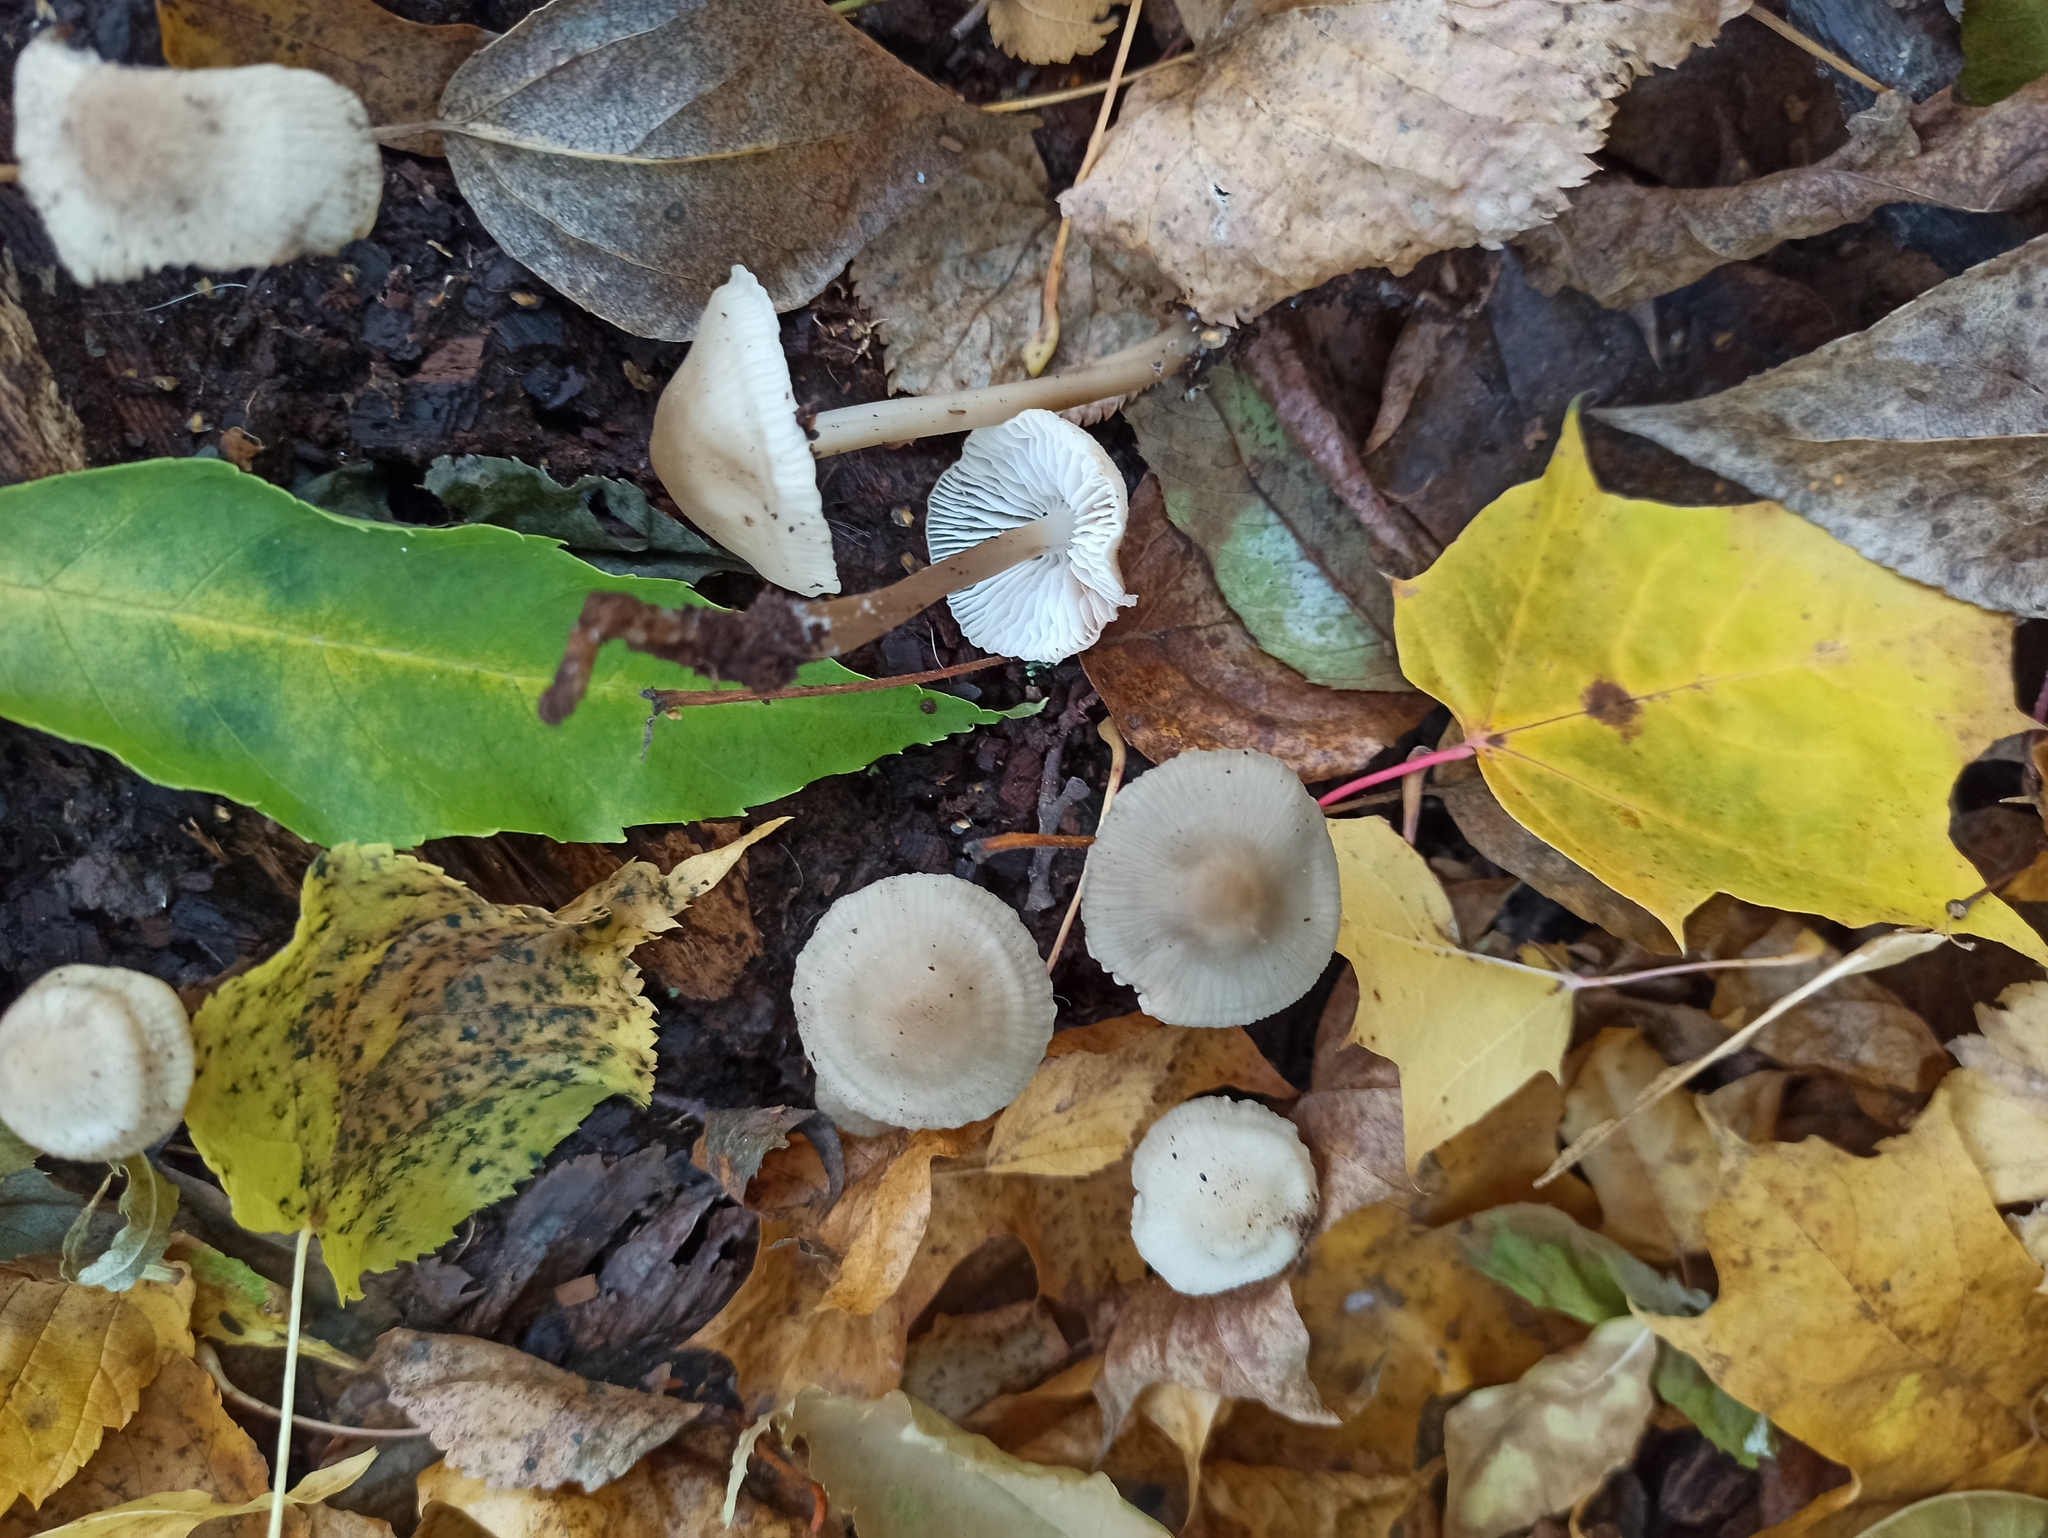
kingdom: Fungi
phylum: Basidiomycota
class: Agaricomycetes
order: Agaricales
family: Mycenaceae
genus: Mycena
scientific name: Mycena galericulata
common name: Bonnet mycena
